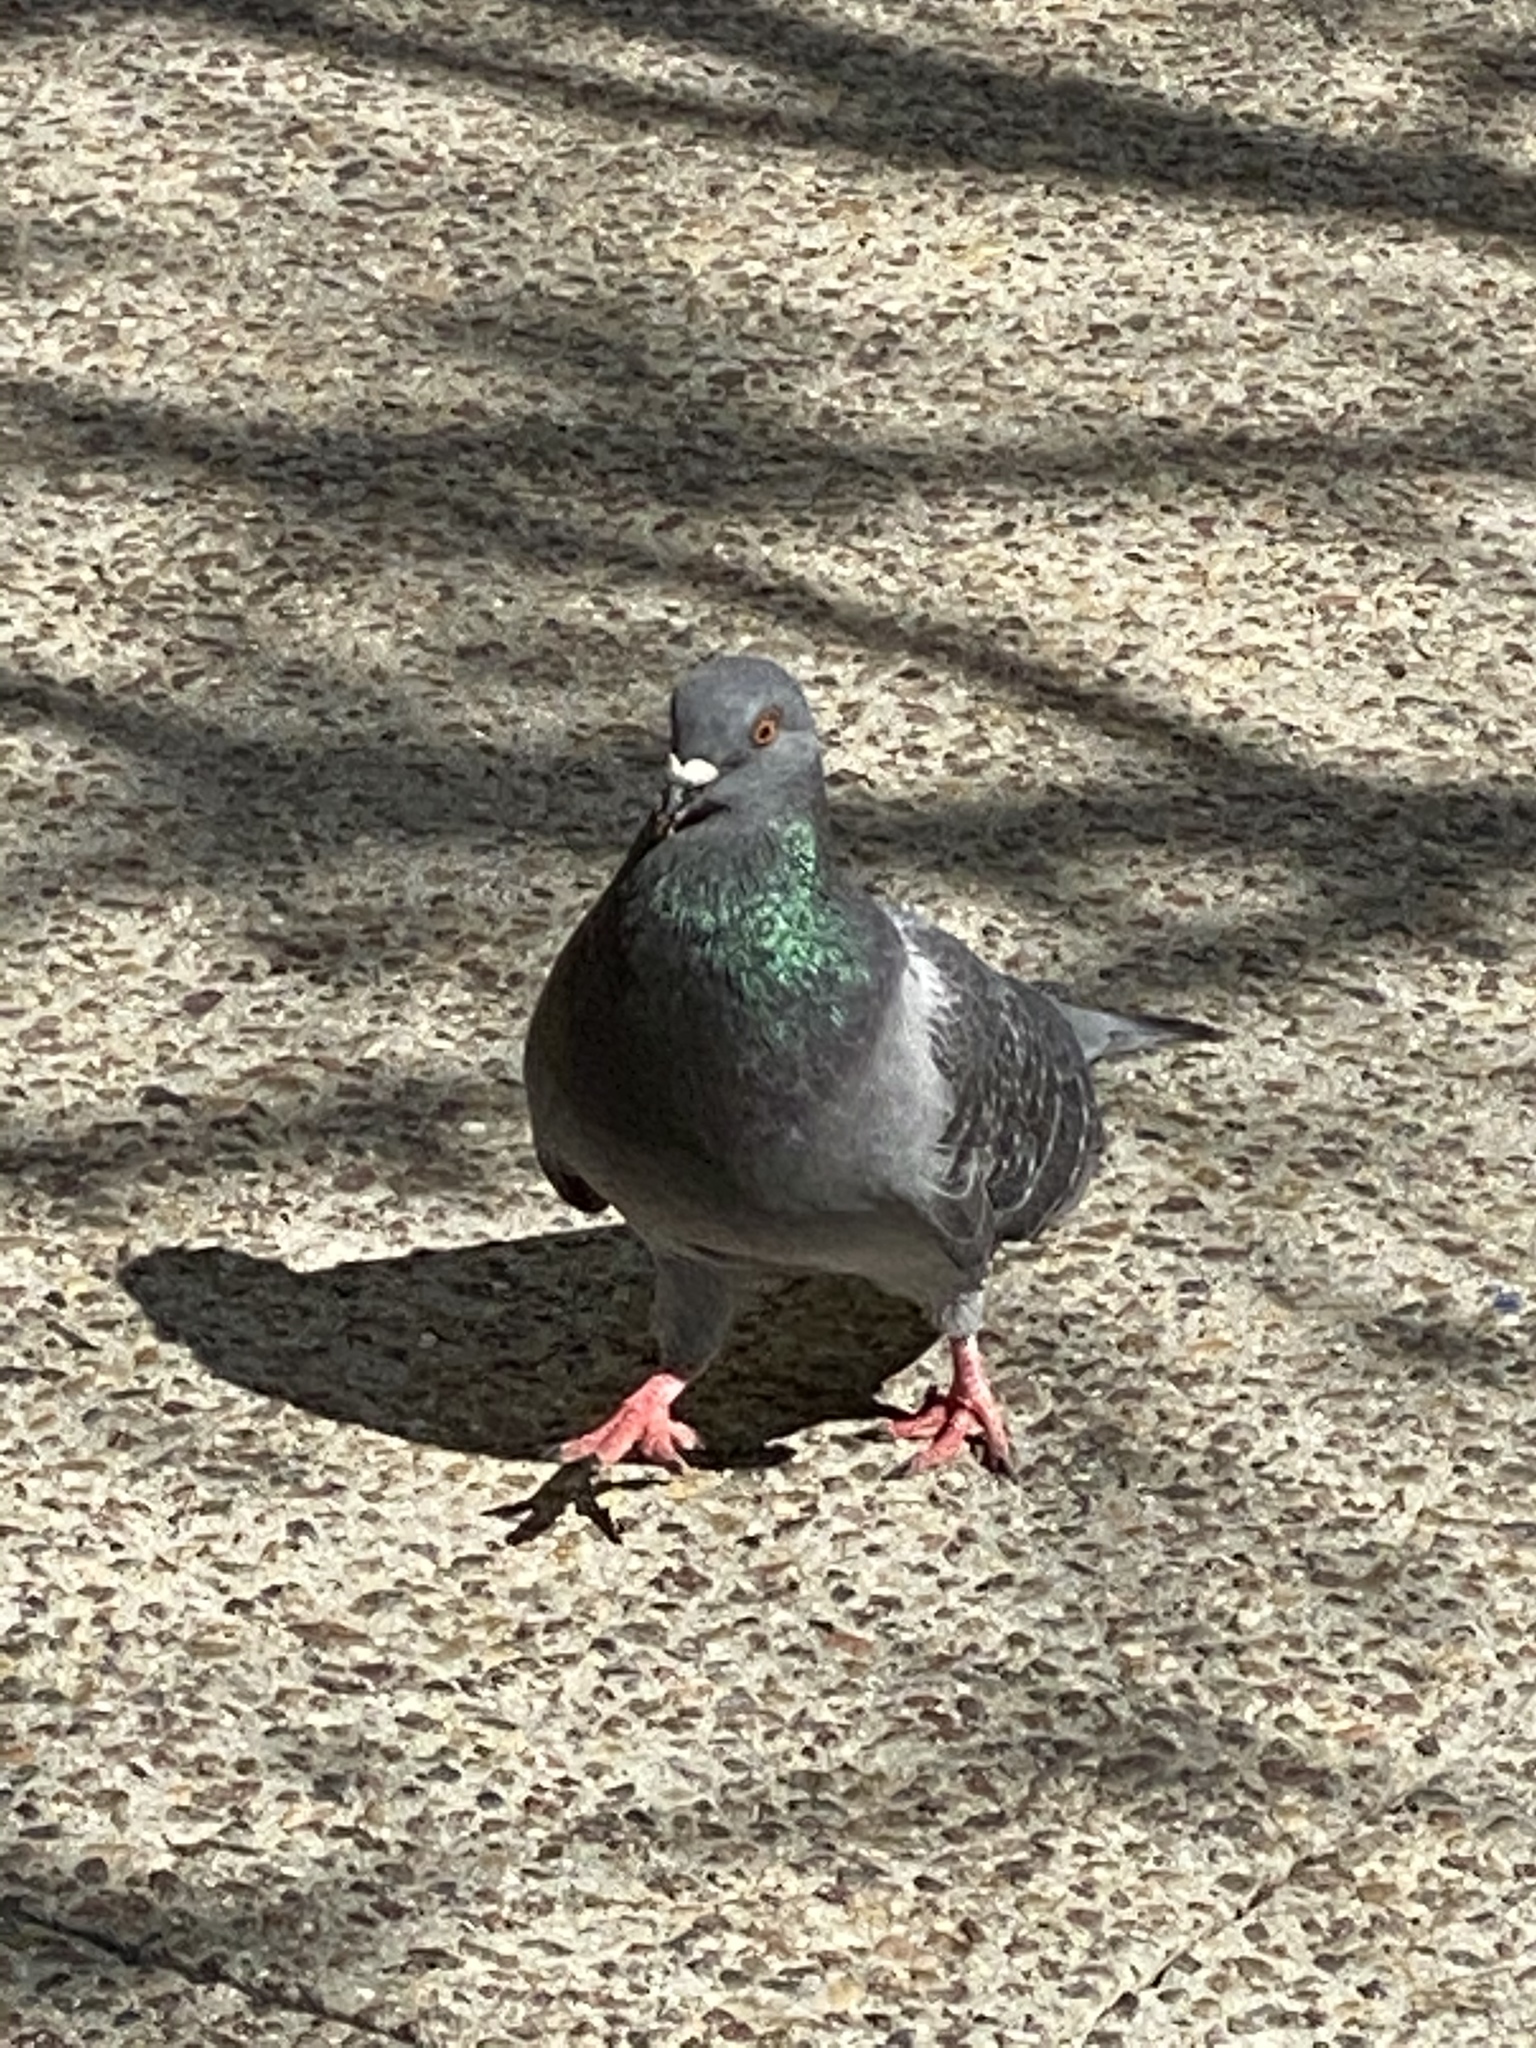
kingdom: Animalia
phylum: Chordata
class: Aves
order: Columbiformes
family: Columbidae
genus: Columba
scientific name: Columba livia
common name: Rock pigeon
